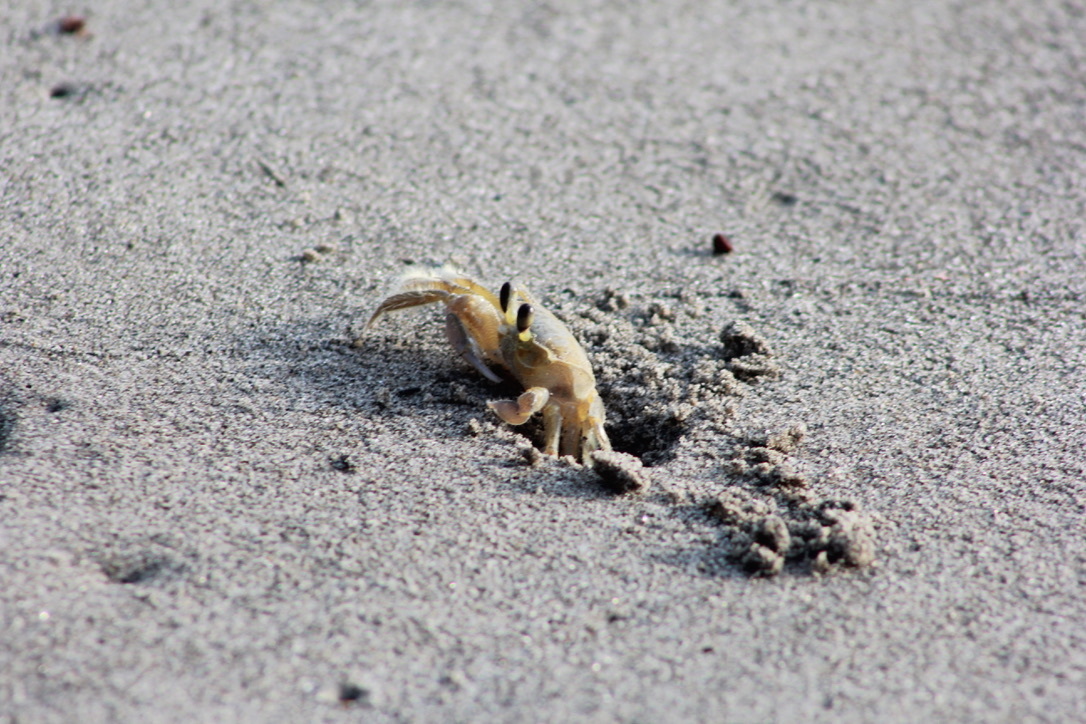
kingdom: Animalia
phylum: Arthropoda
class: Malacostraca
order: Decapoda
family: Ocypodidae
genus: Ocypode
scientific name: Ocypode quadrata
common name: Ghost crab
